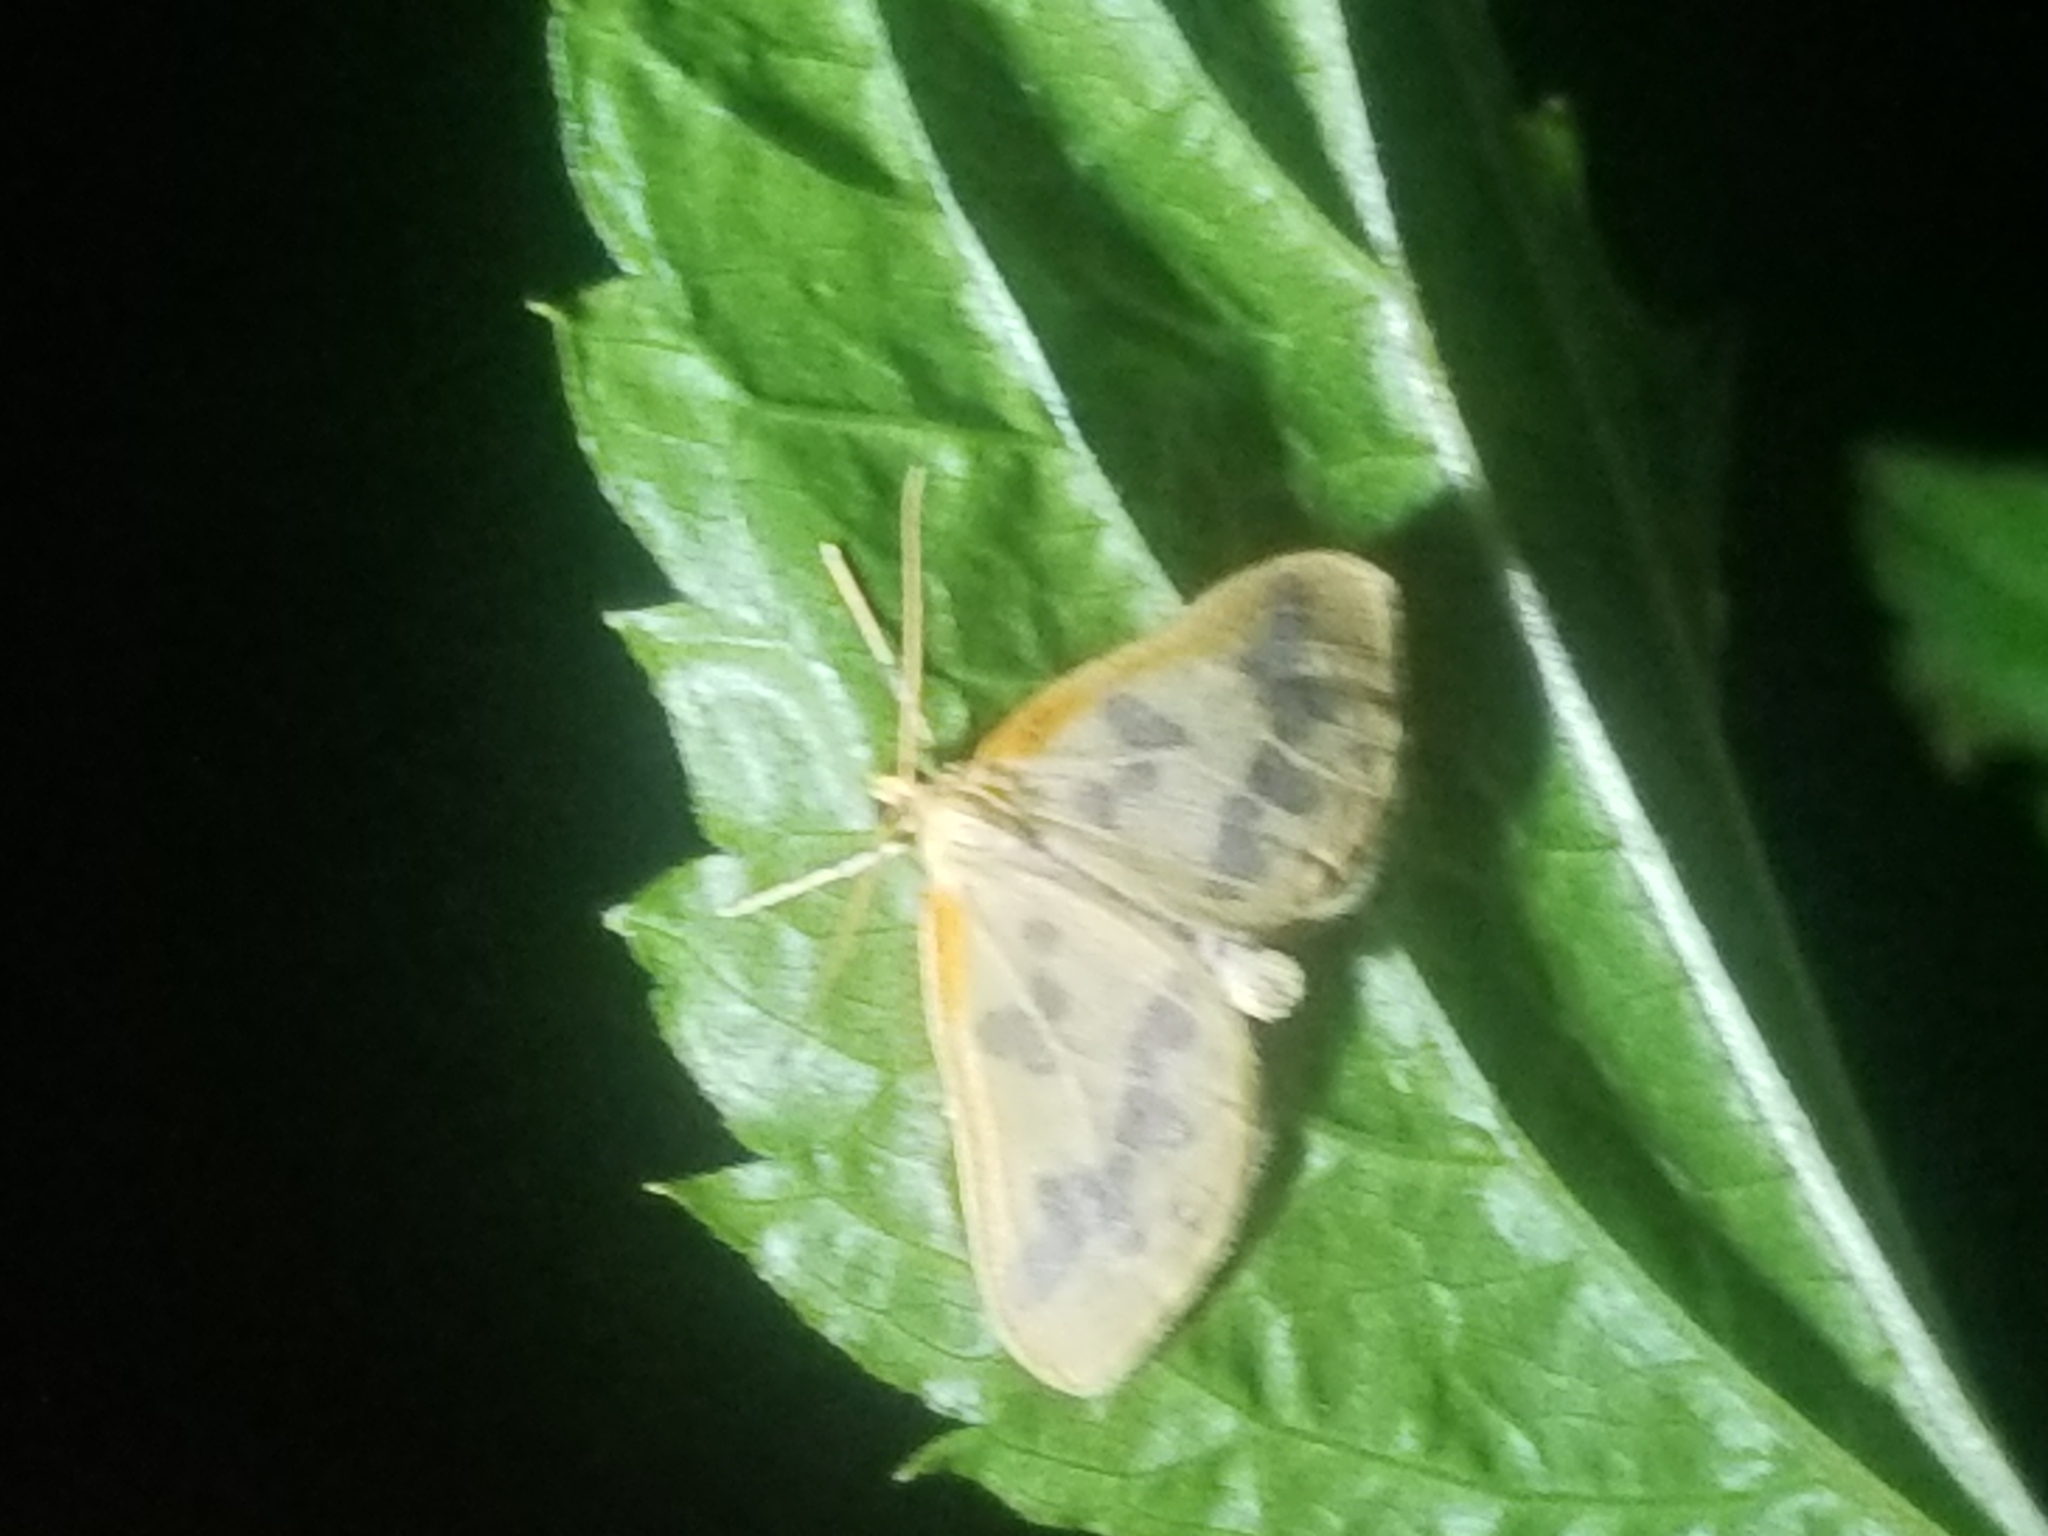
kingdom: Animalia
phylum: Arthropoda
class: Insecta
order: Lepidoptera
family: Geometridae
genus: Eubaphe
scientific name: Eubaphe mendica
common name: Beggar
